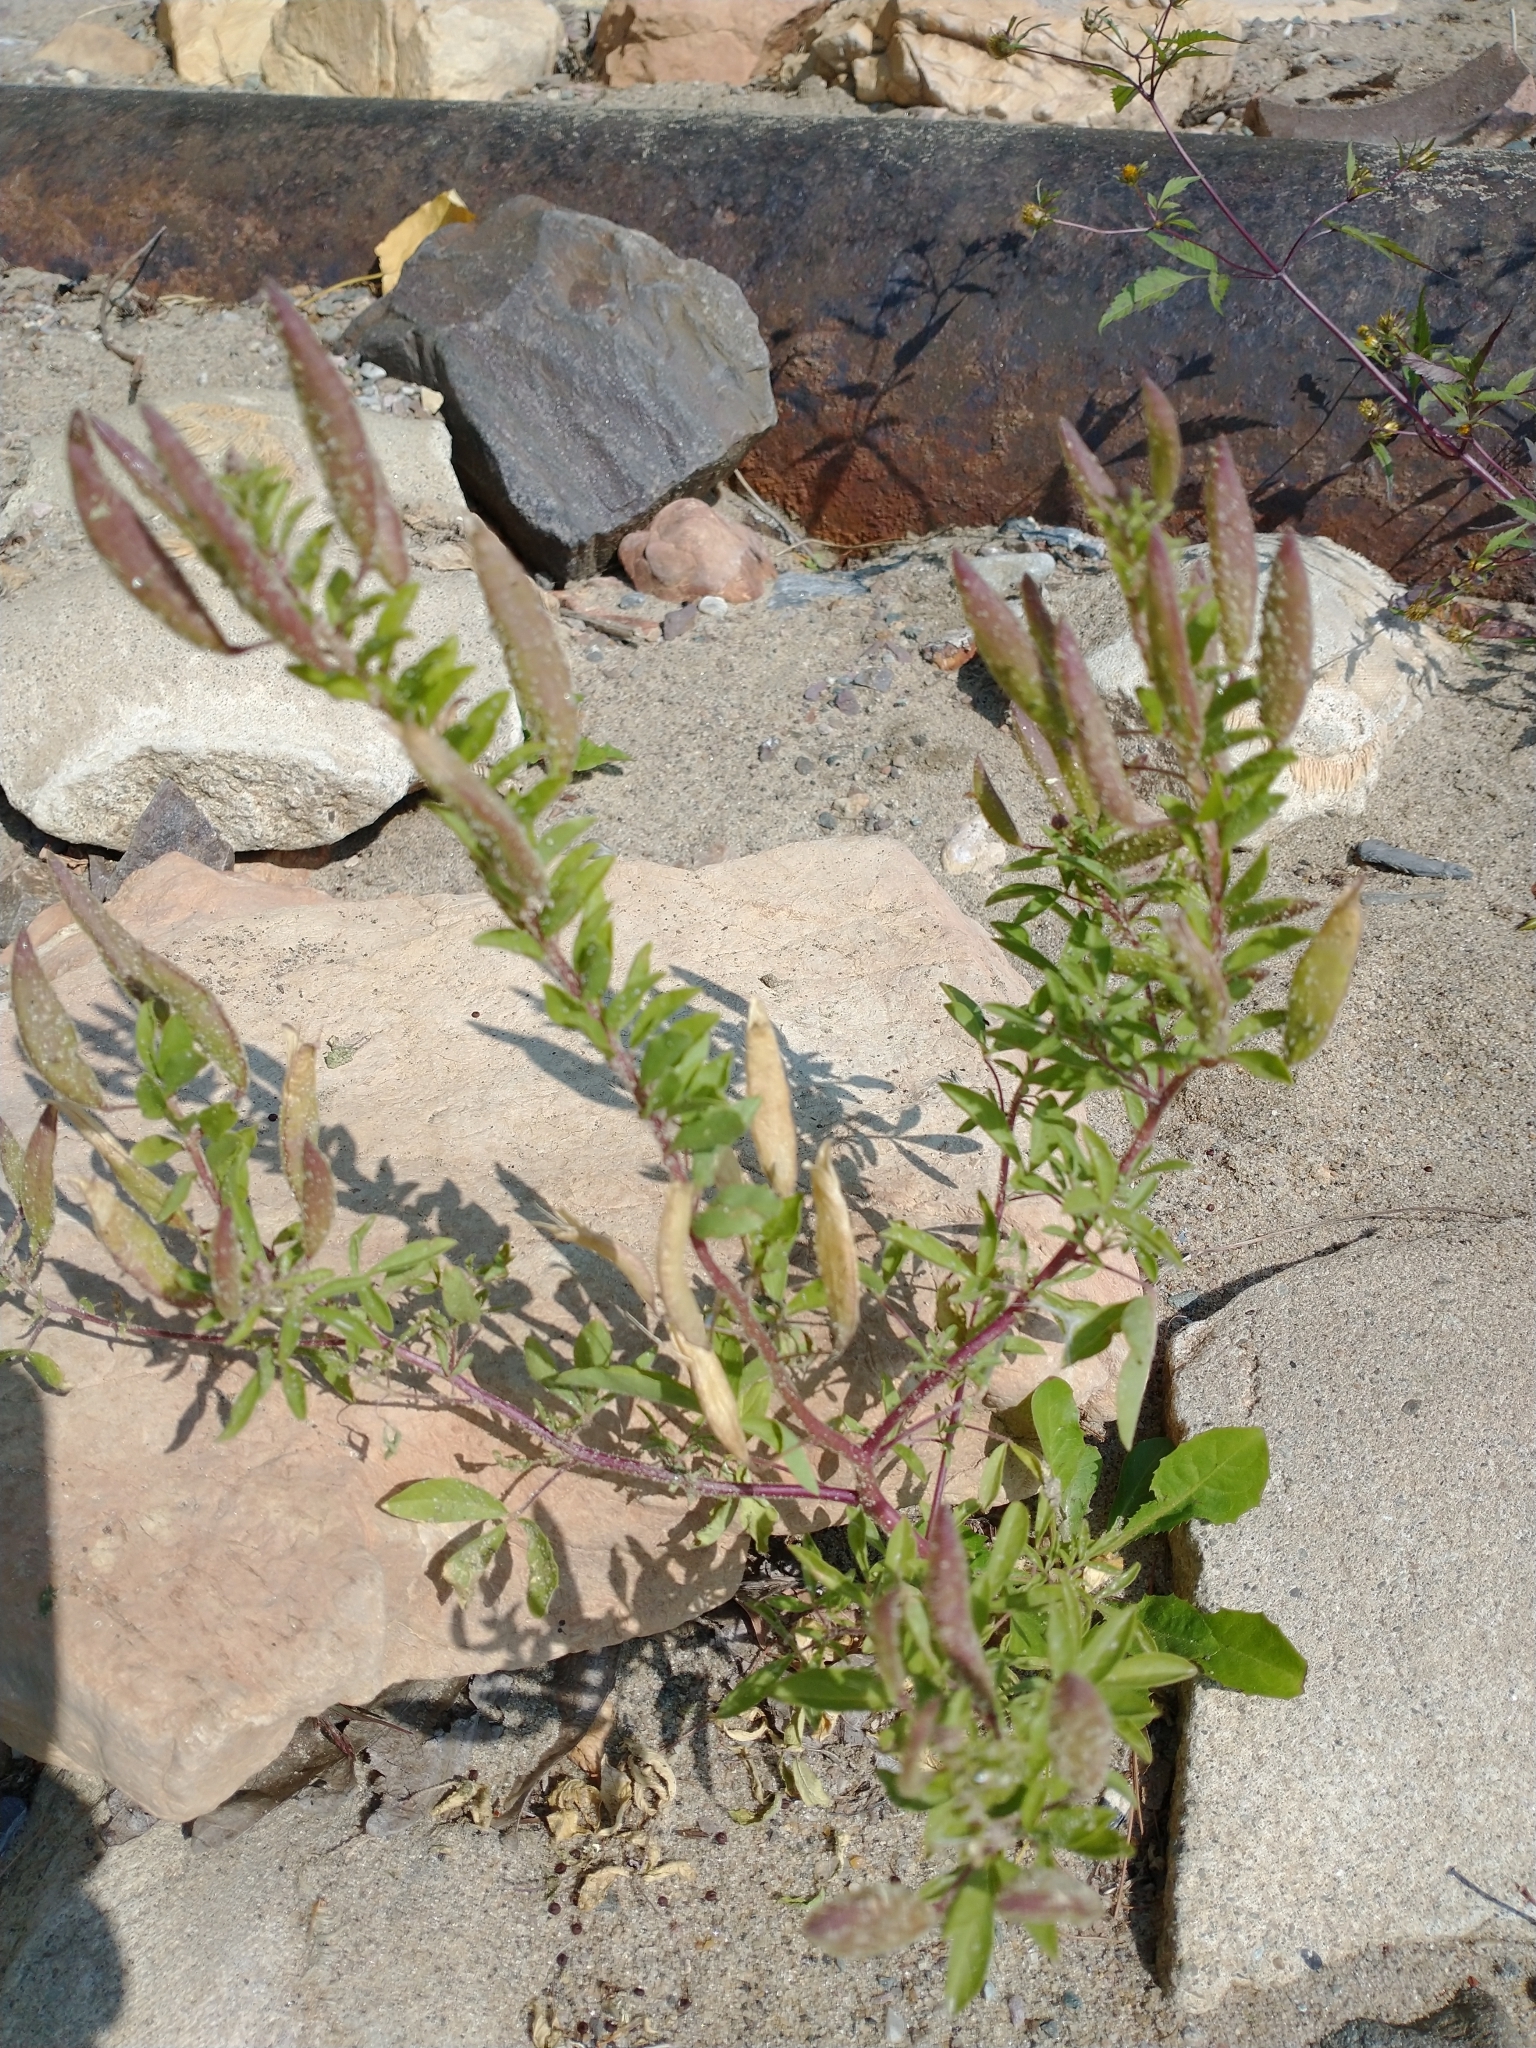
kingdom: Plantae
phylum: Tracheophyta
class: Magnoliopsida
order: Brassicales
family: Cleomaceae
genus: Polanisia
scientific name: Polanisia dodecandra
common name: Clammyweed
